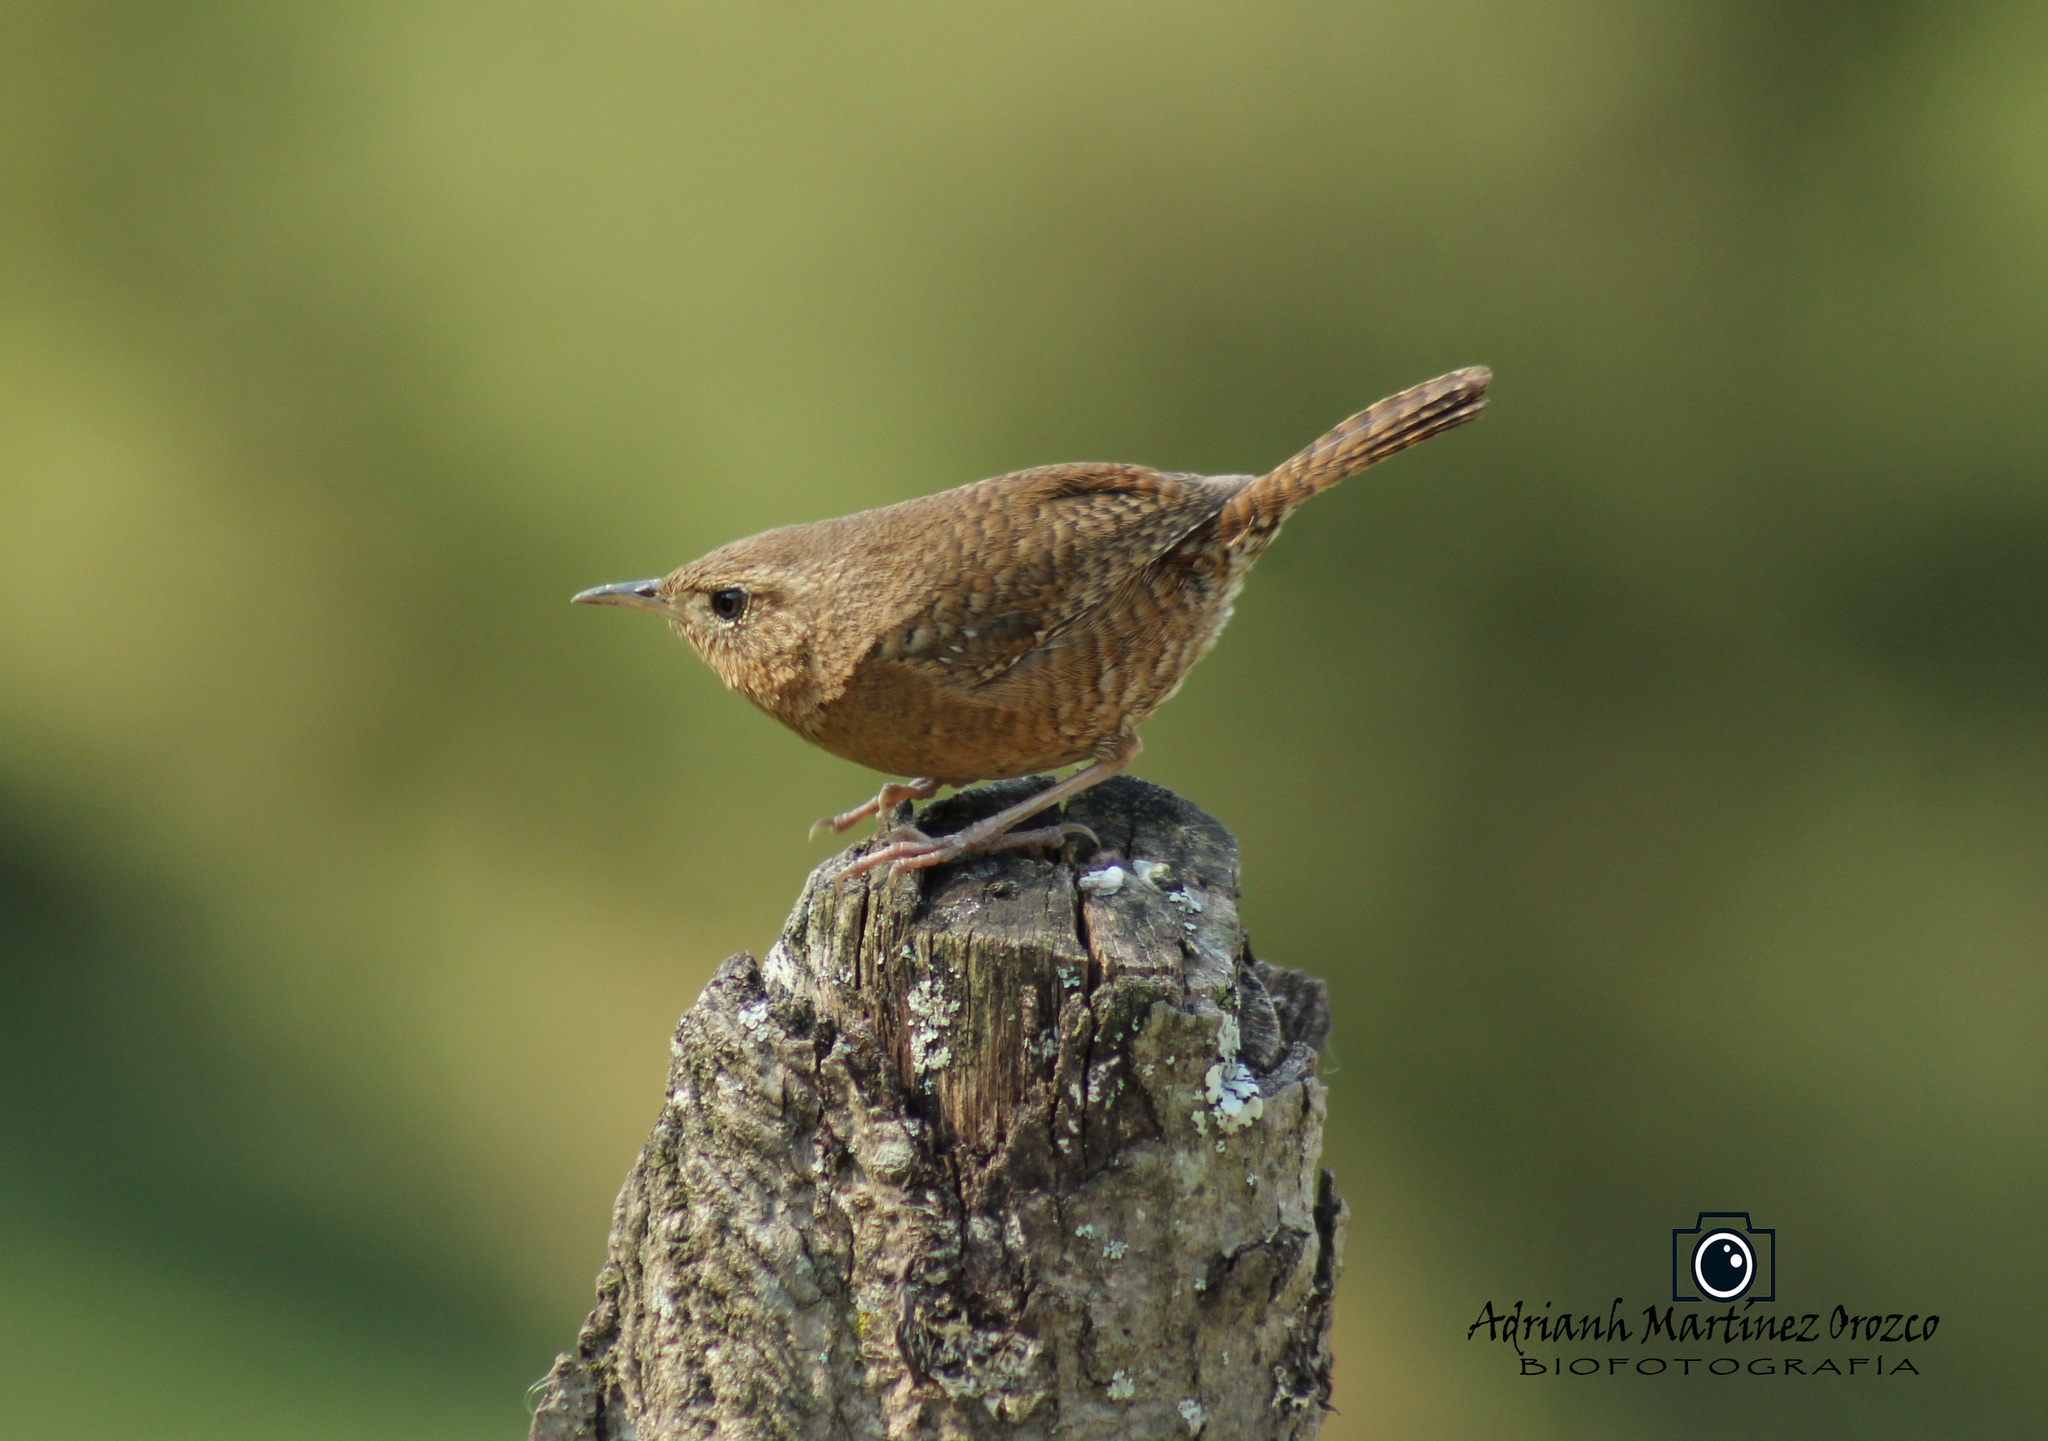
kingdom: Animalia
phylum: Chordata
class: Aves
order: Passeriformes
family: Troglodytidae
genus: Troglodytes
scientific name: Troglodytes aedon
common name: House wren
